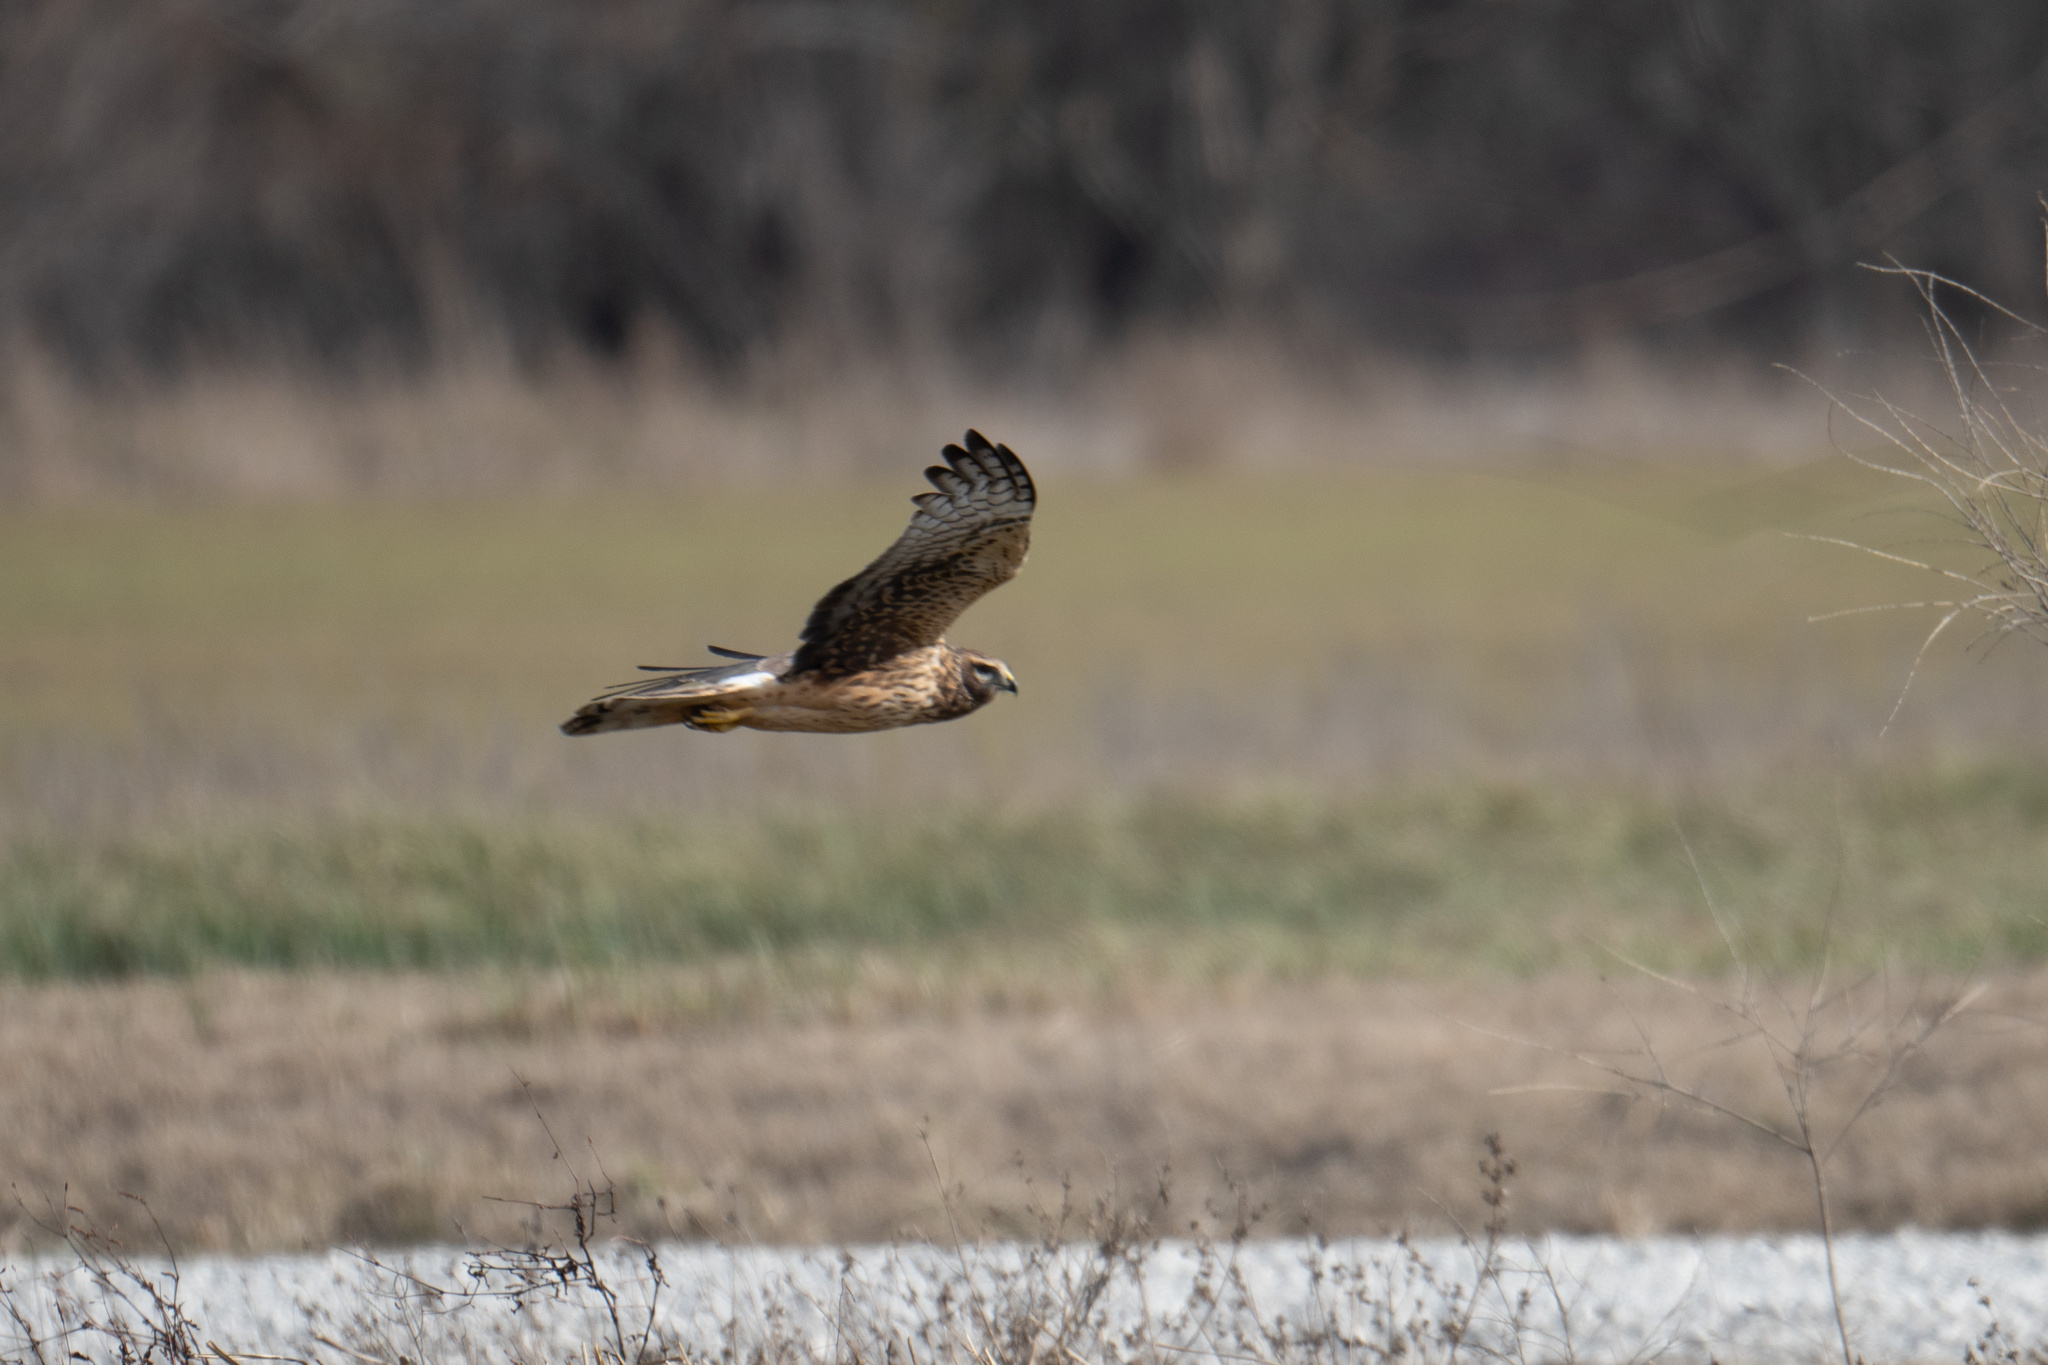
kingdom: Animalia
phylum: Chordata
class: Aves
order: Accipitriformes
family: Accipitridae
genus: Circus
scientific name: Circus cyaneus
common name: Hen harrier
